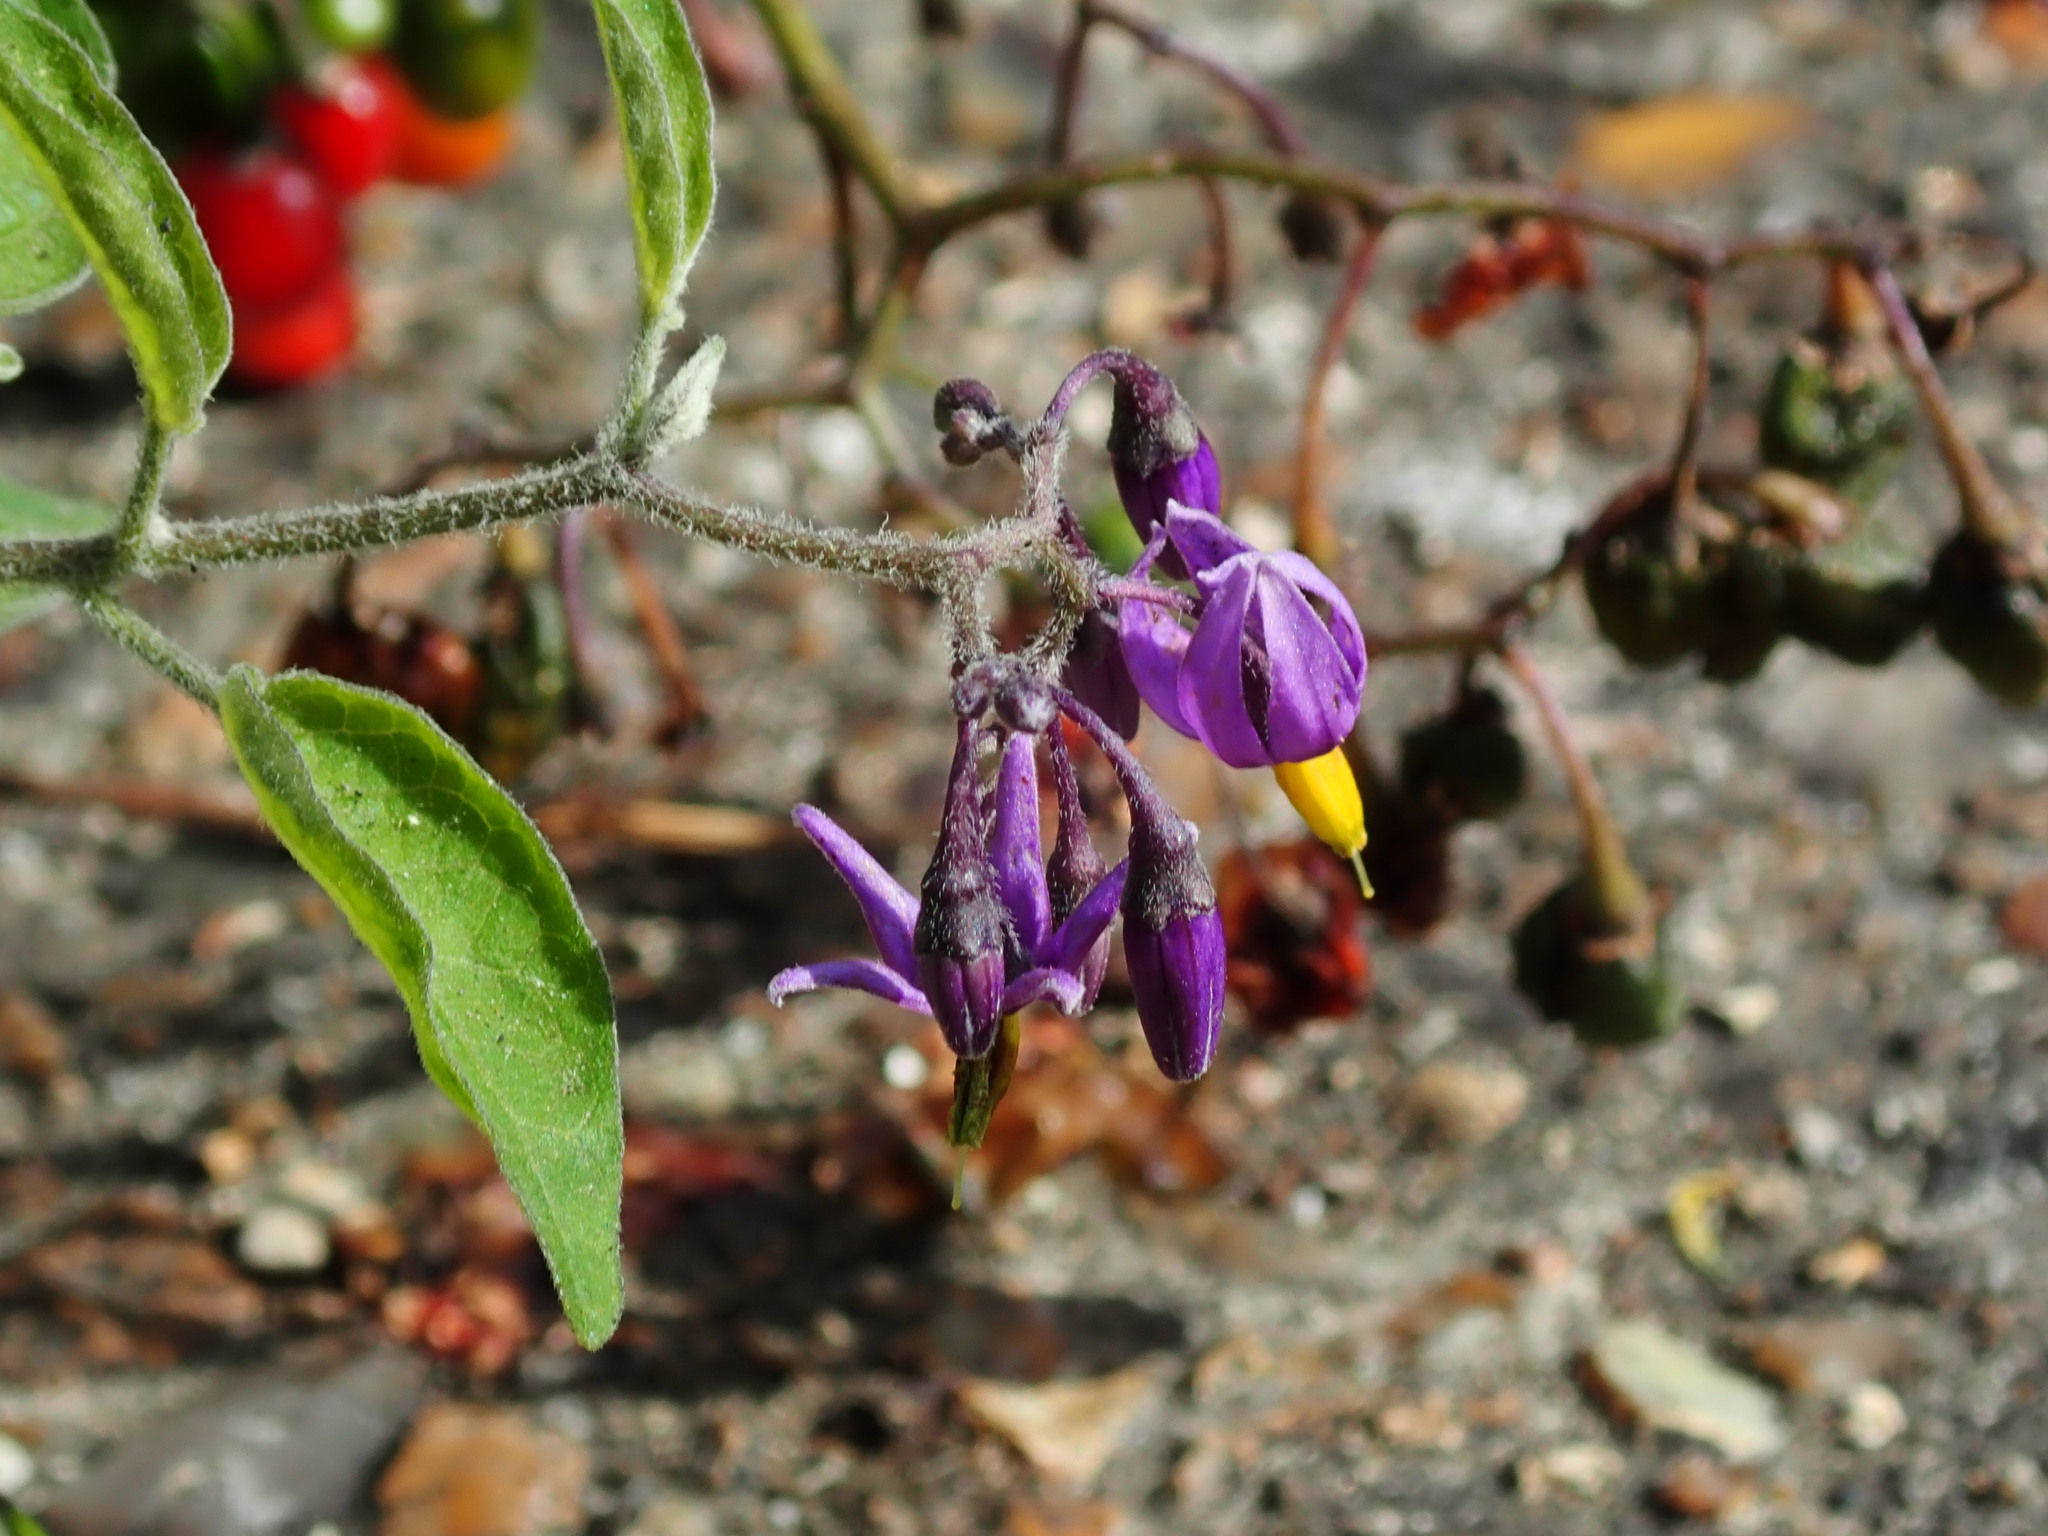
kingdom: Plantae
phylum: Tracheophyta
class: Magnoliopsida
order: Solanales
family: Solanaceae
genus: Solanum
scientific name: Solanum dulcamara
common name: Climbing nightshade
